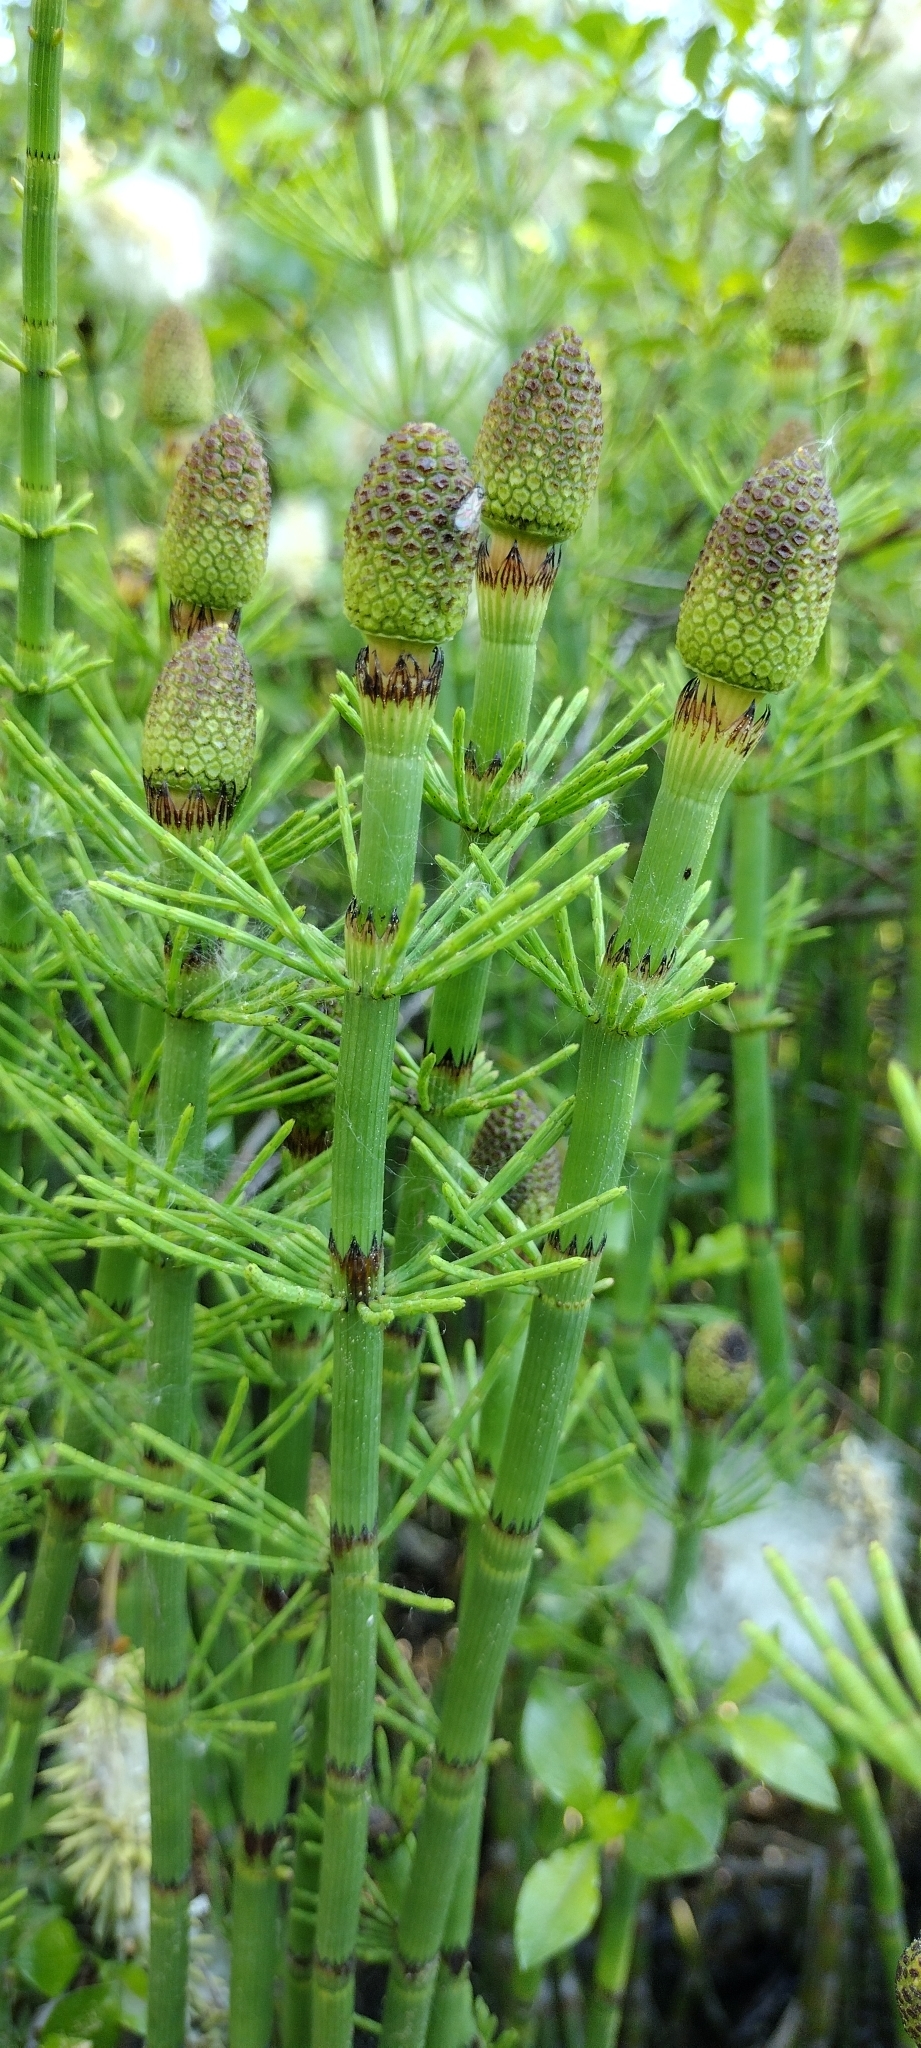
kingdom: Plantae
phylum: Tracheophyta
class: Polypodiopsida
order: Equisetales
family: Equisetaceae
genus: Equisetum
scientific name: Equisetum fluviatile
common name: Water horsetail
